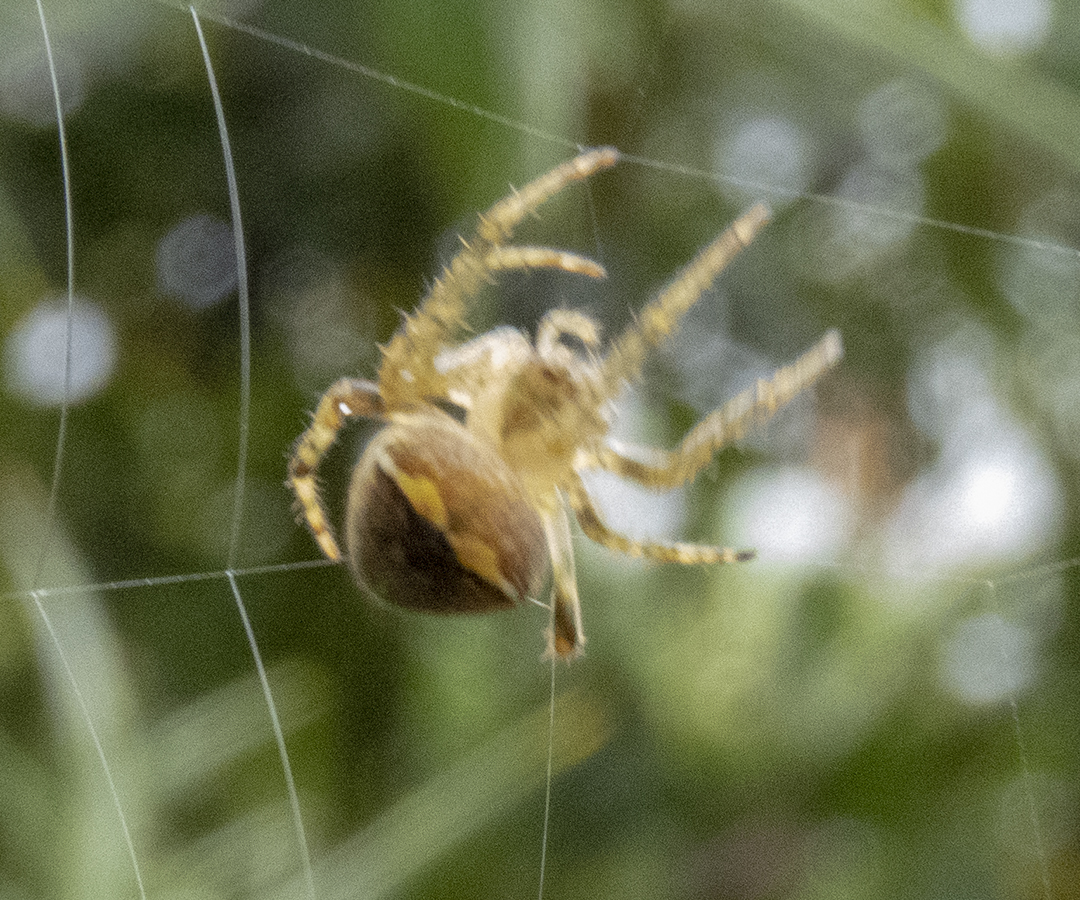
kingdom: Animalia
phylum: Arthropoda
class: Arachnida
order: Araneae
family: Araneidae
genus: Zealaranea
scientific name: Zealaranea crassa
